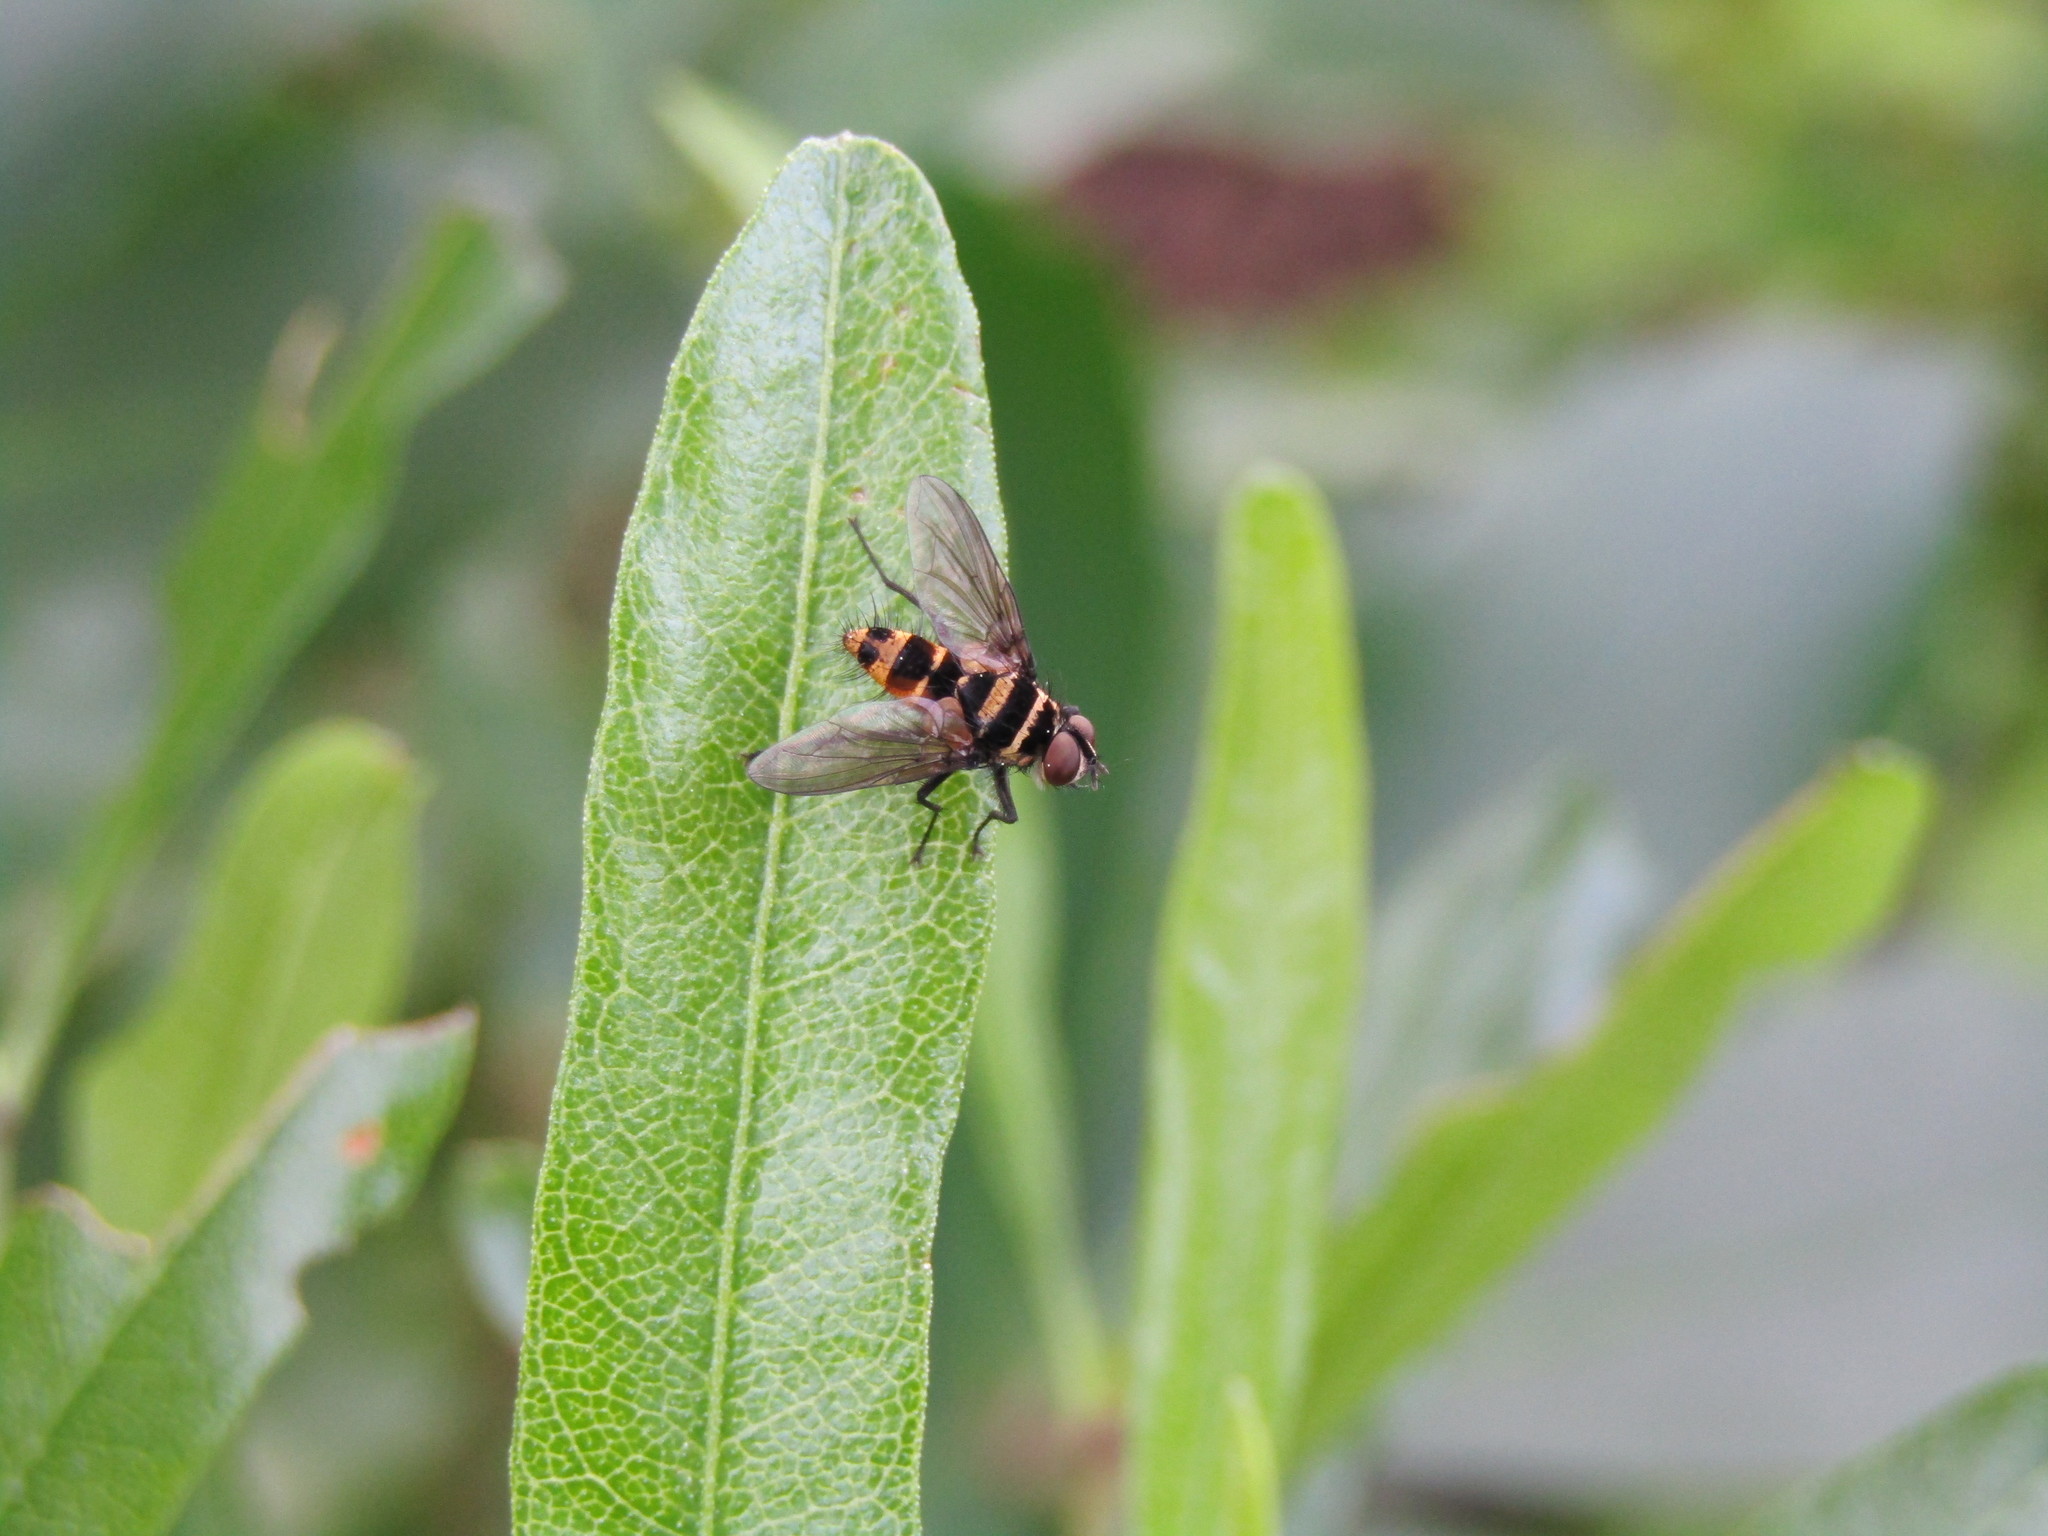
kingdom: Animalia
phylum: Arthropoda
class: Insecta
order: Diptera
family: Tachinidae
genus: Trigonospila
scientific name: Trigonospila brevifacies
